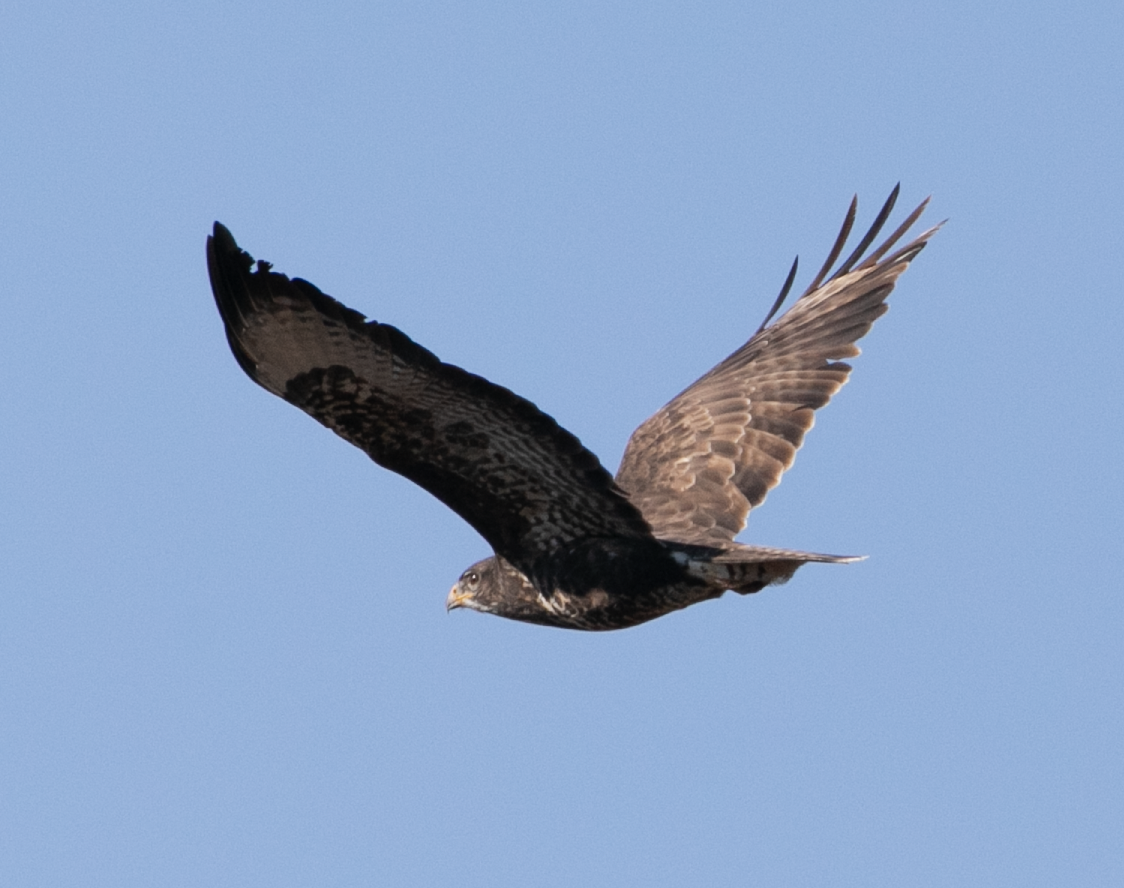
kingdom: Animalia
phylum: Chordata
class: Aves
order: Accipitriformes
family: Accipitridae
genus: Buteo
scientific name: Buteo buteo
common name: Common buzzard
